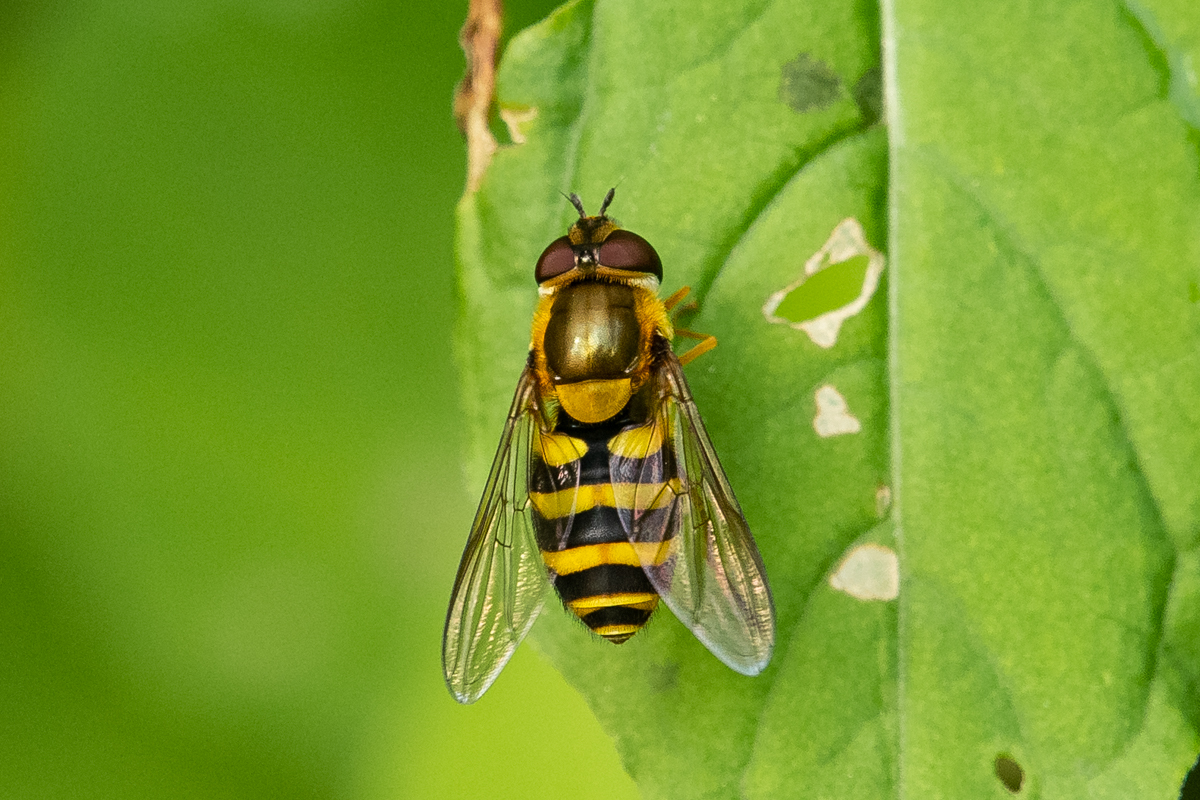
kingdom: Animalia
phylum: Arthropoda
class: Insecta
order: Diptera
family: Syrphidae
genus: Syrphus
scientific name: Syrphus
